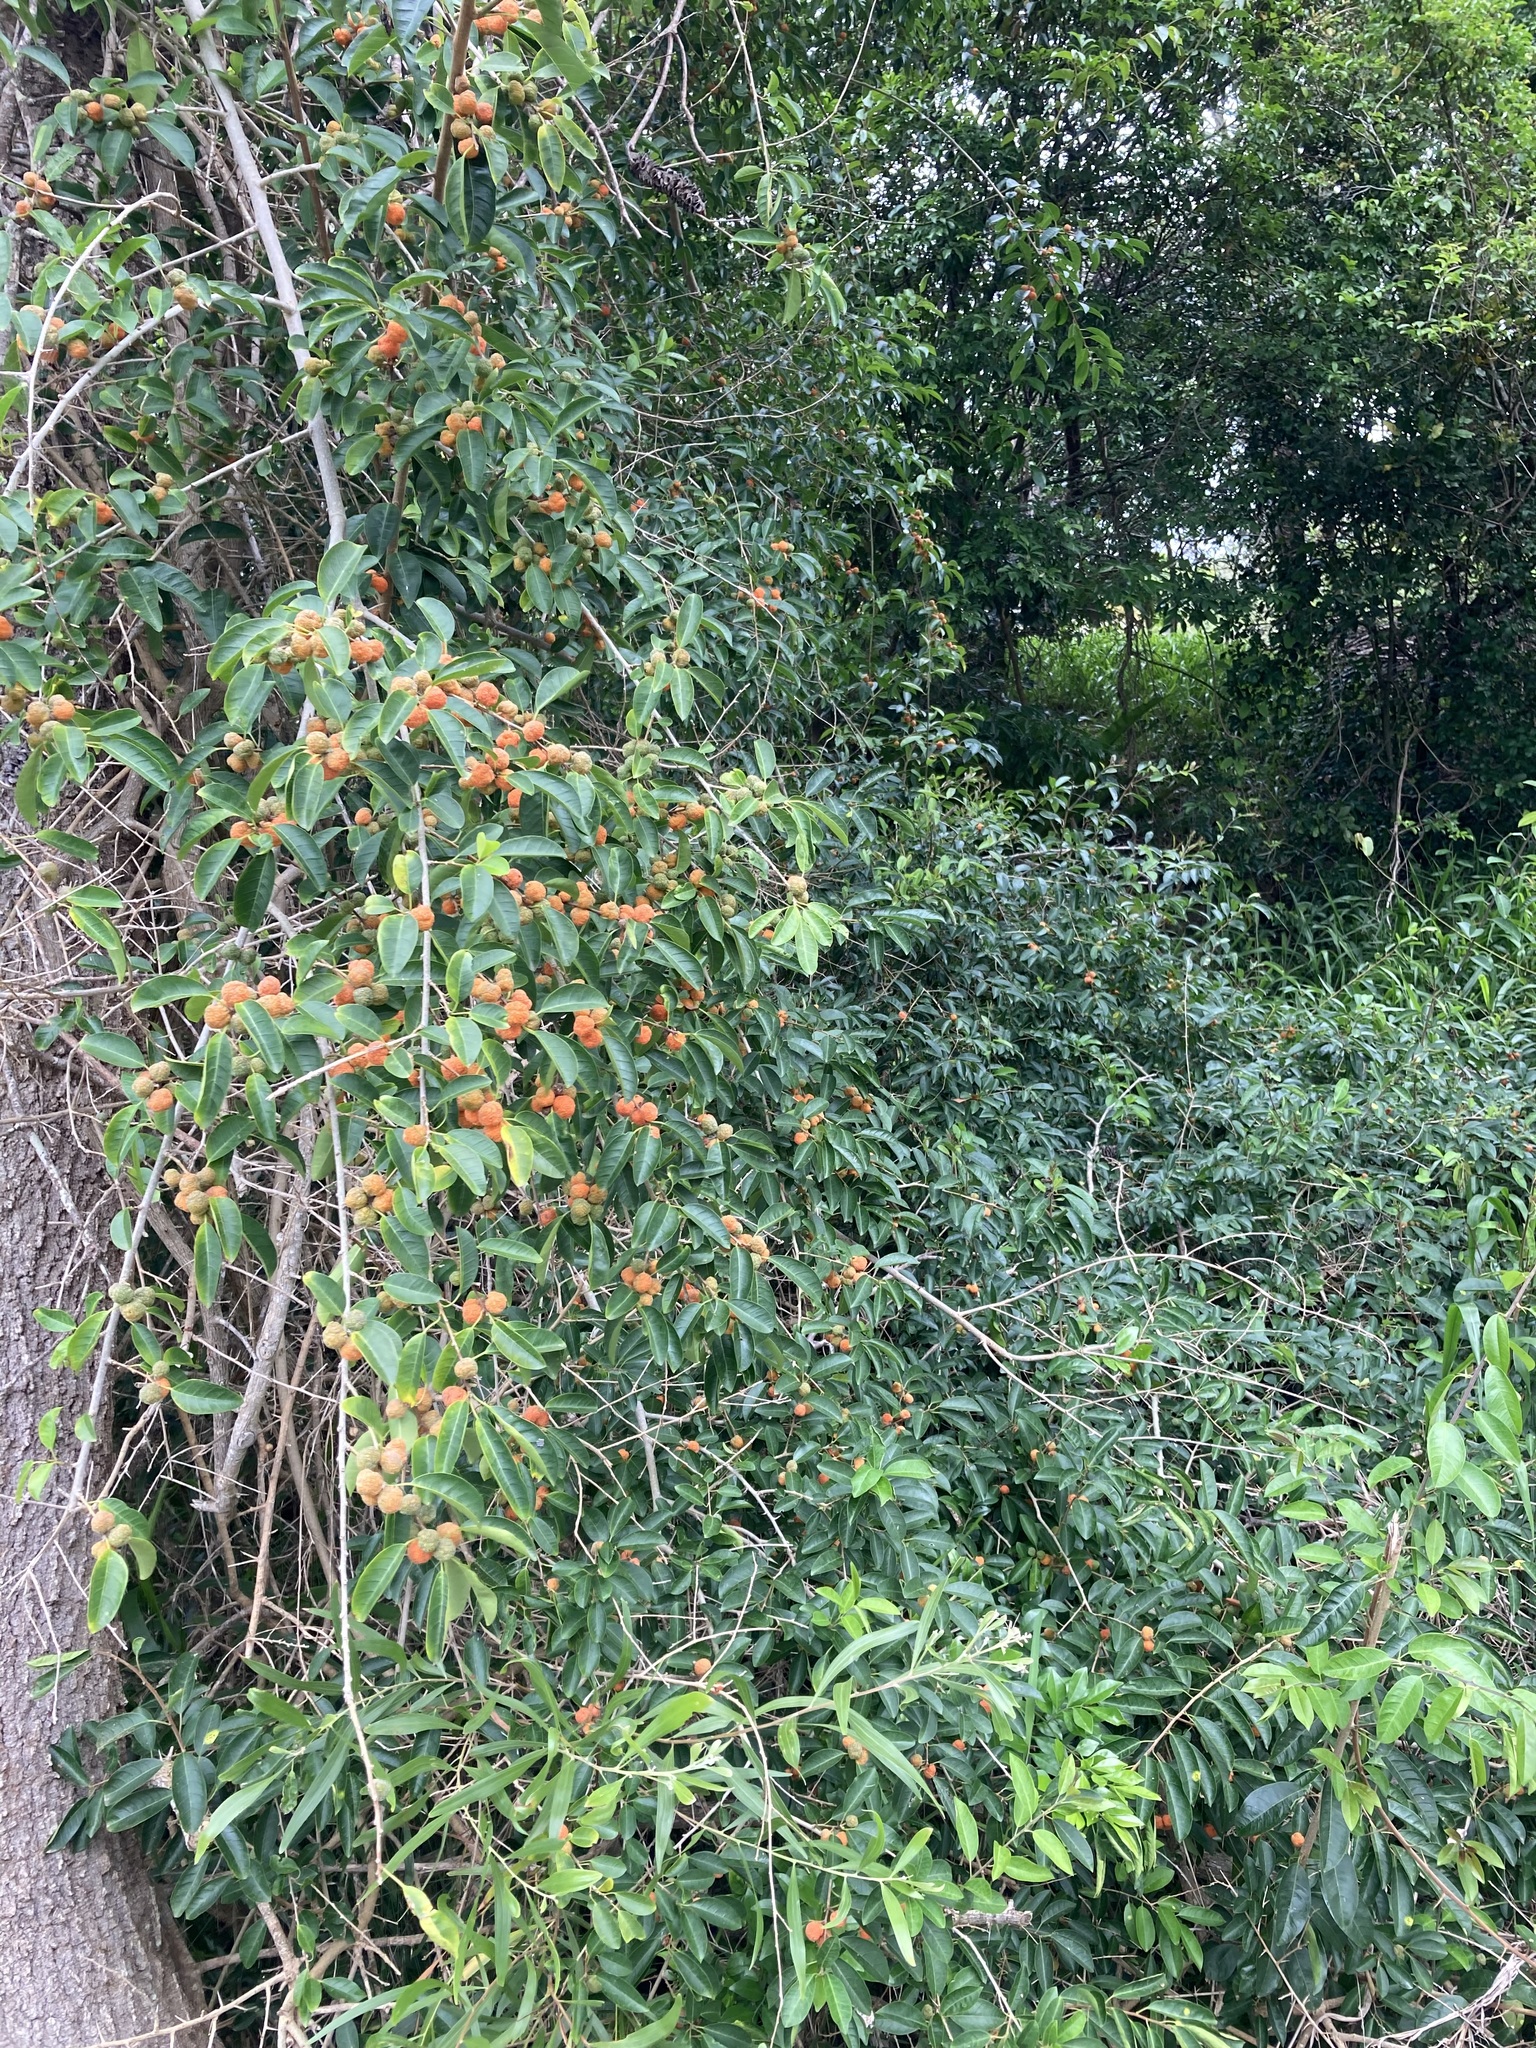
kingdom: Plantae
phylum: Tracheophyta
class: Magnoliopsida
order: Rosales
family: Moraceae
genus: Maclura
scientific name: Maclura cochinchinensis
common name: Cockspurthorn
